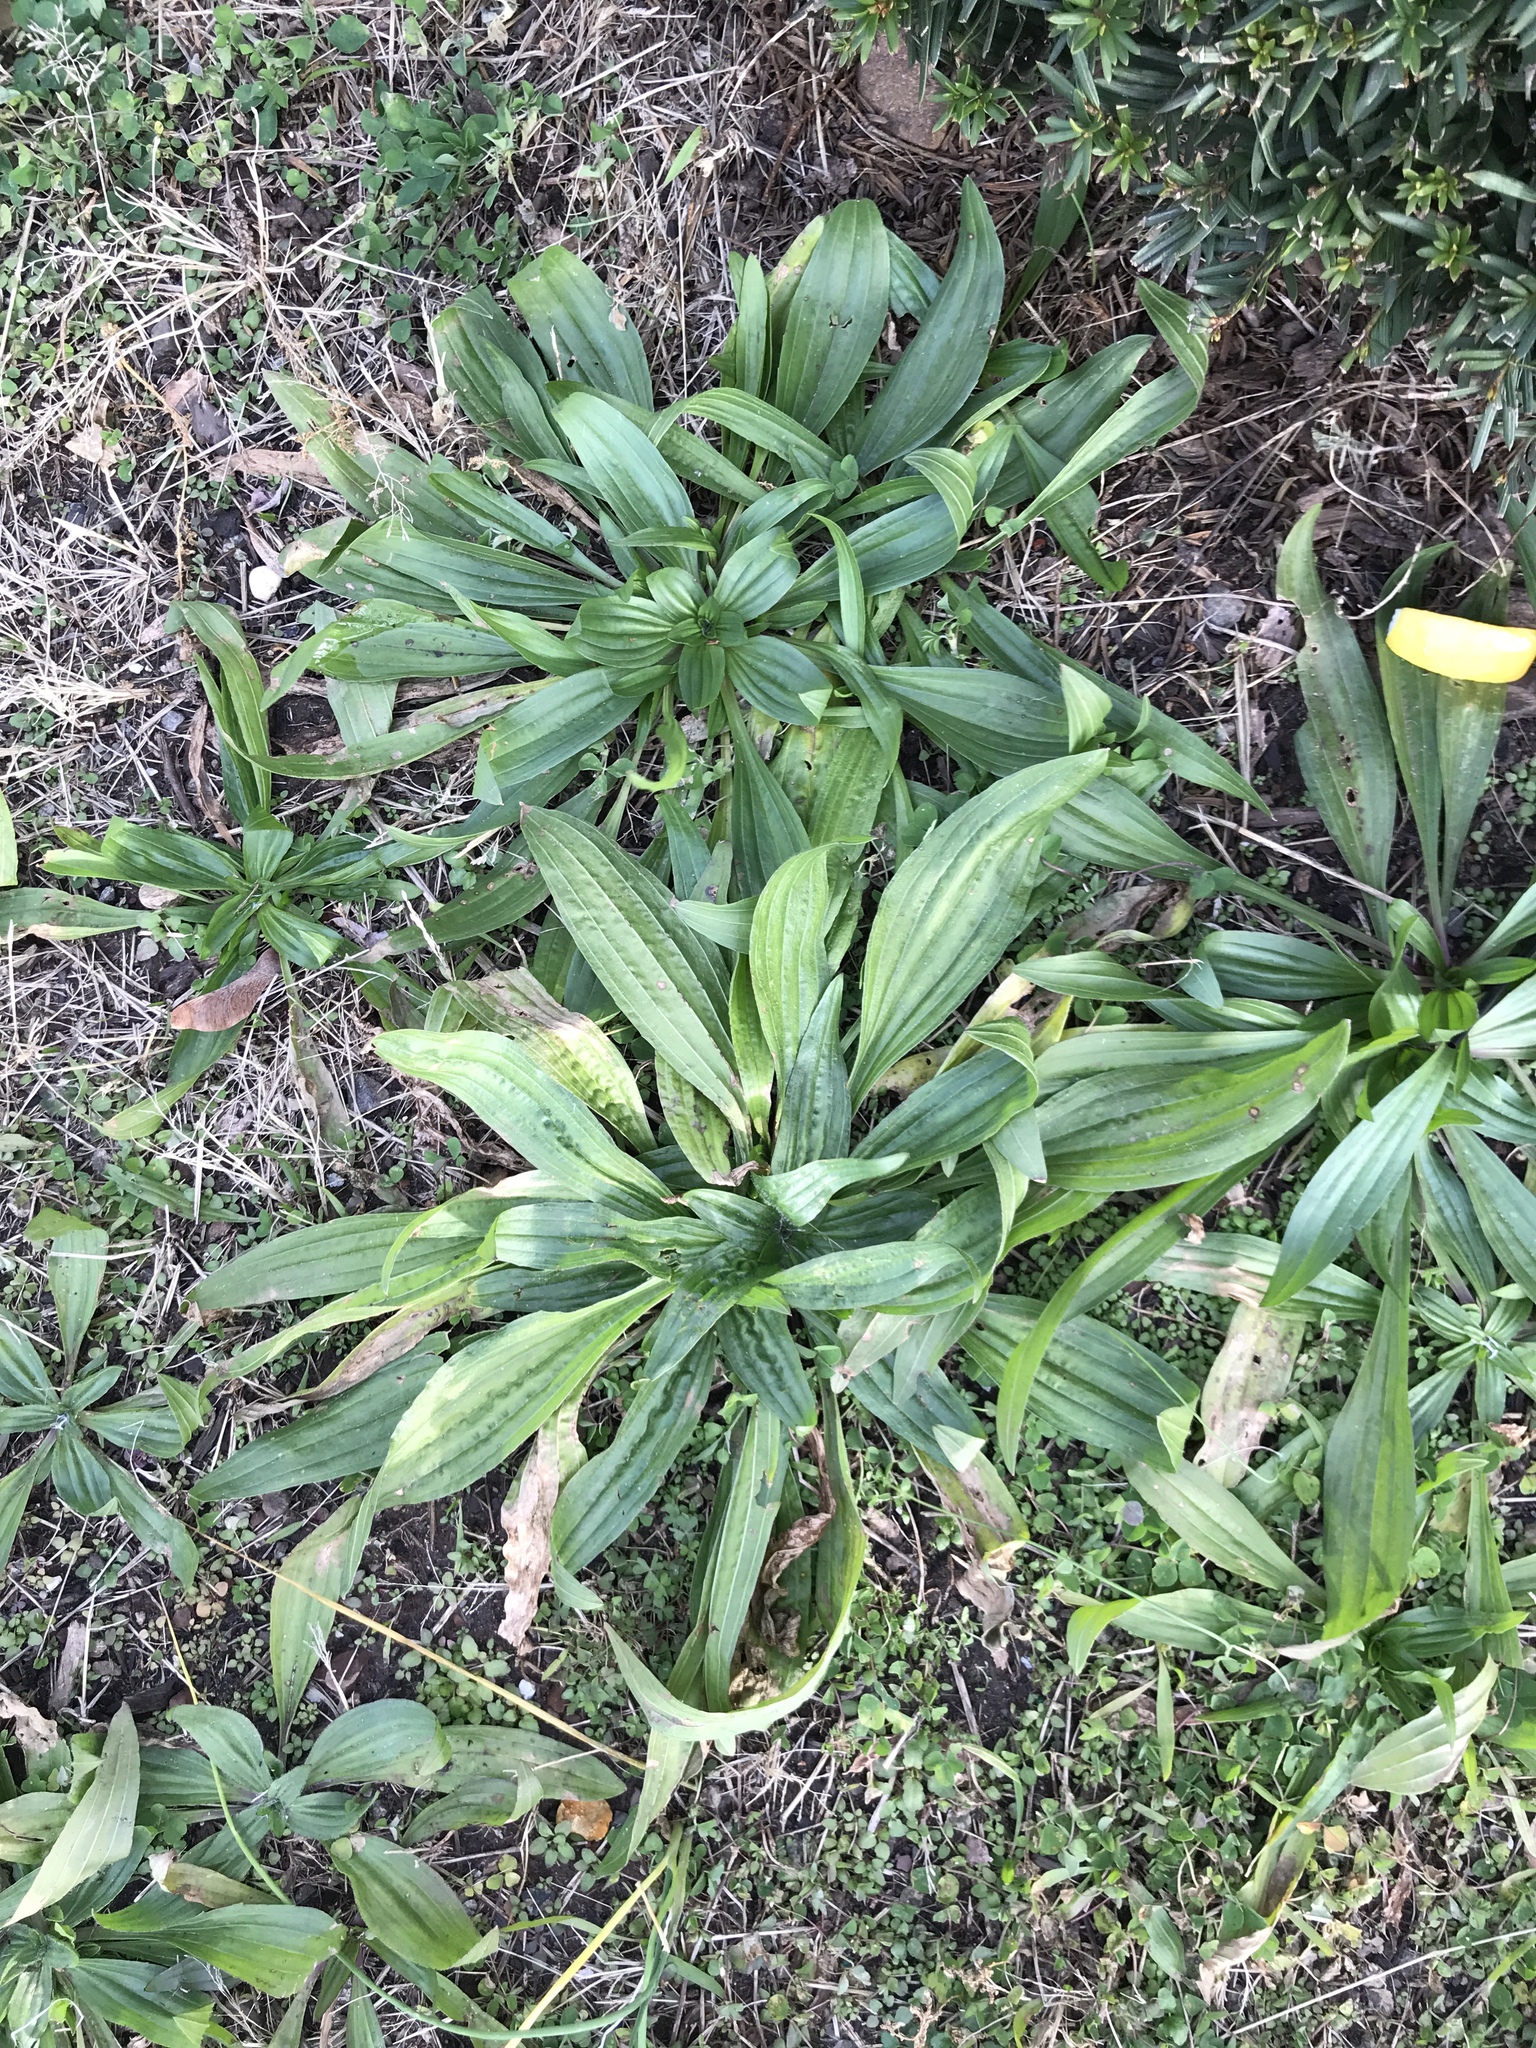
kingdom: Plantae
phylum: Tracheophyta
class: Magnoliopsida
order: Lamiales
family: Plantaginaceae
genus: Plantago
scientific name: Plantago lanceolata
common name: Ribwort plantain
